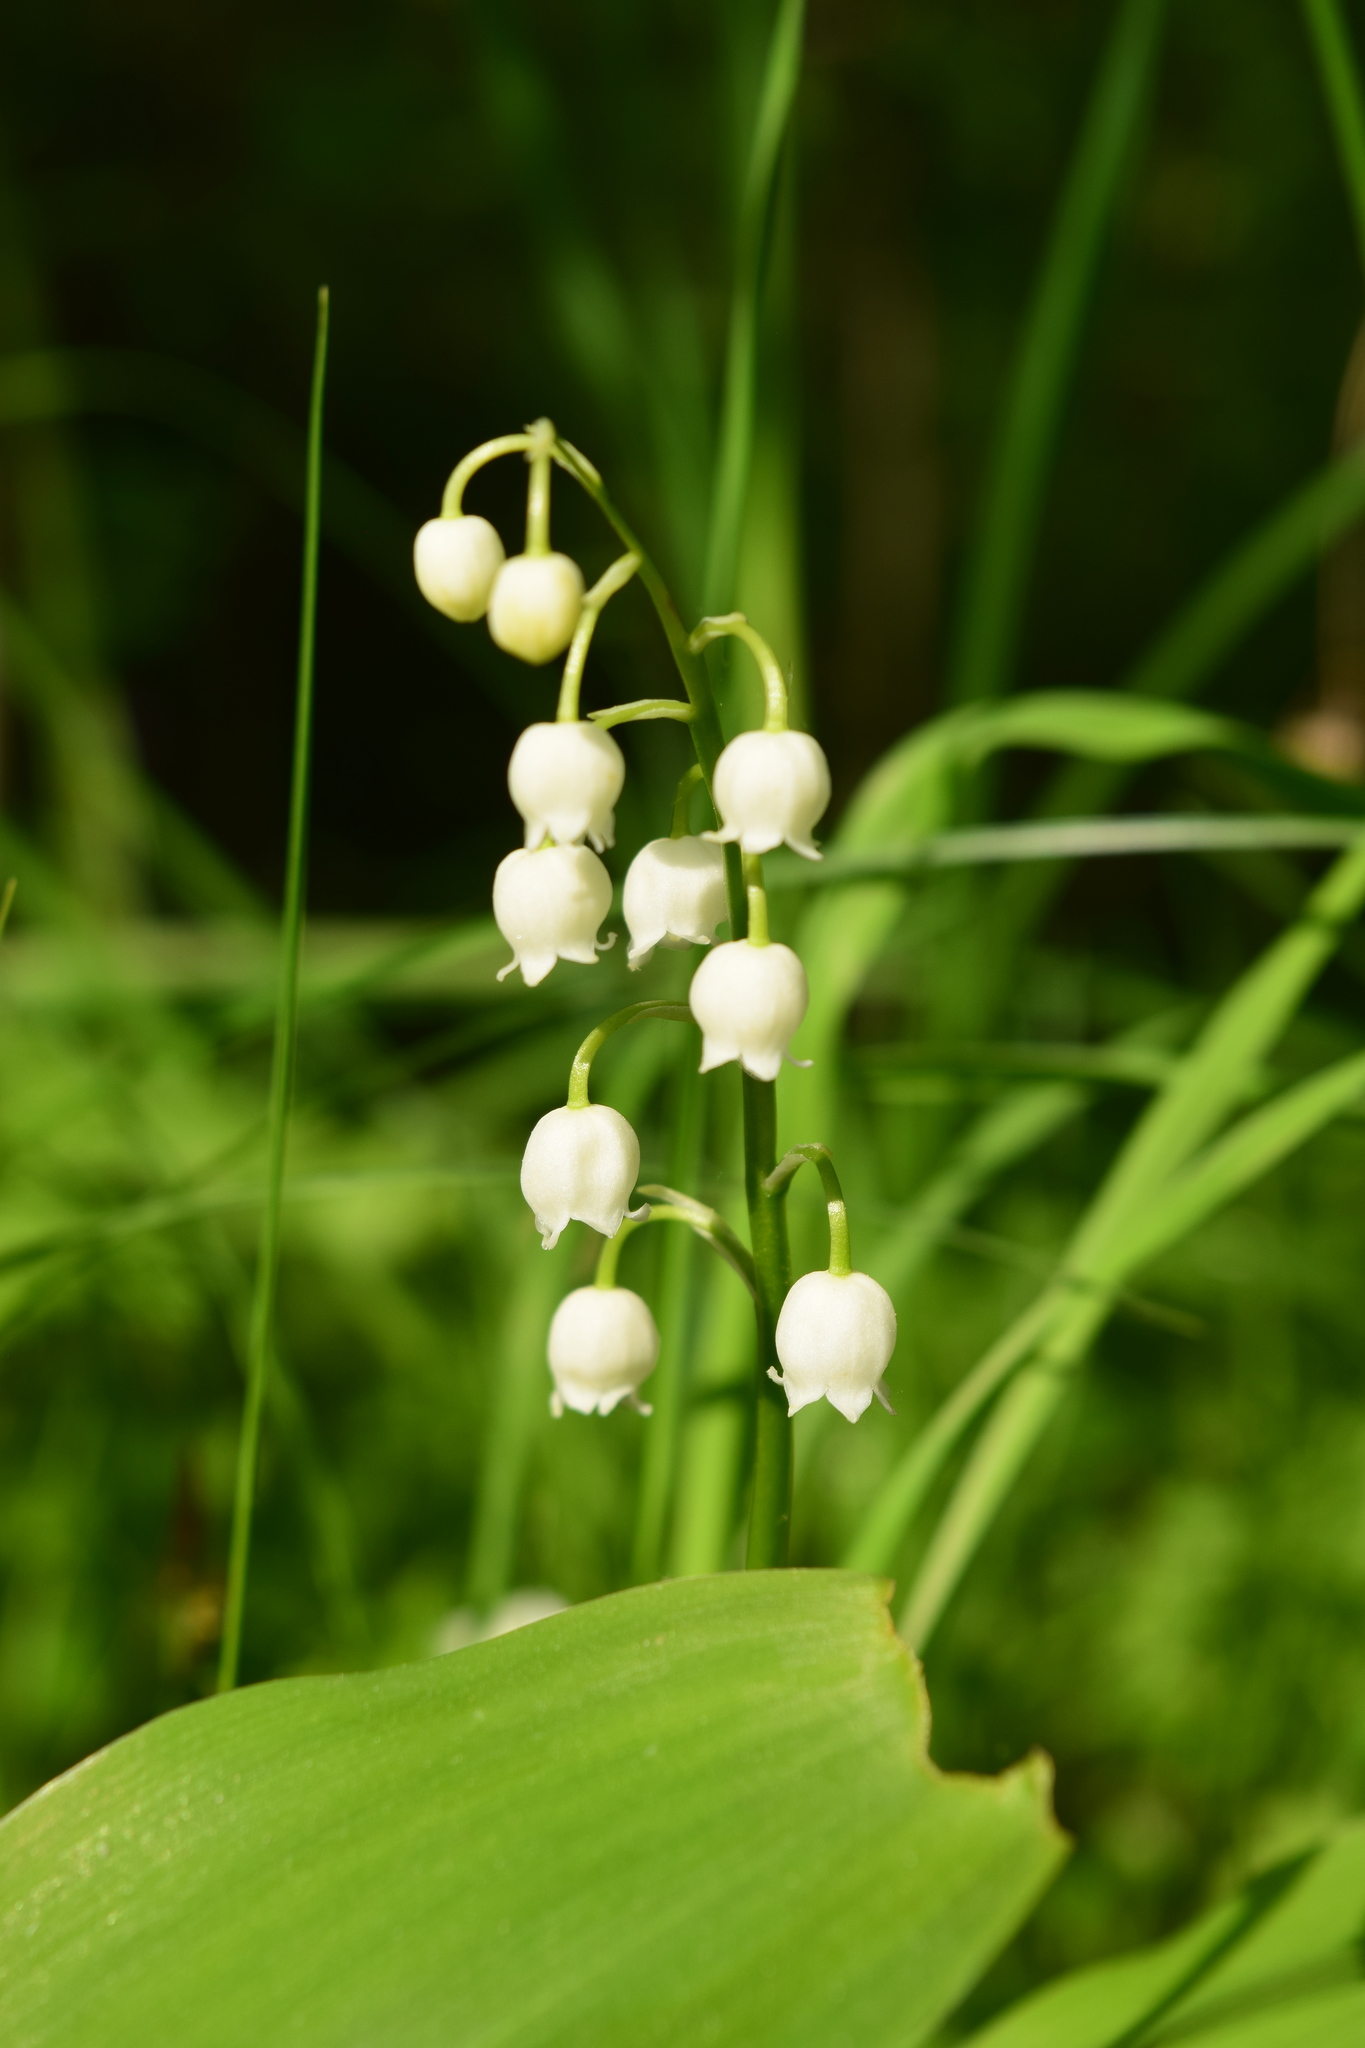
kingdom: Plantae
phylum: Tracheophyta
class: Liliopsida
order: Asparagales
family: Asparagaceae
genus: Convallaria
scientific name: Convallaria majalis
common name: Lily-of-the-valley
